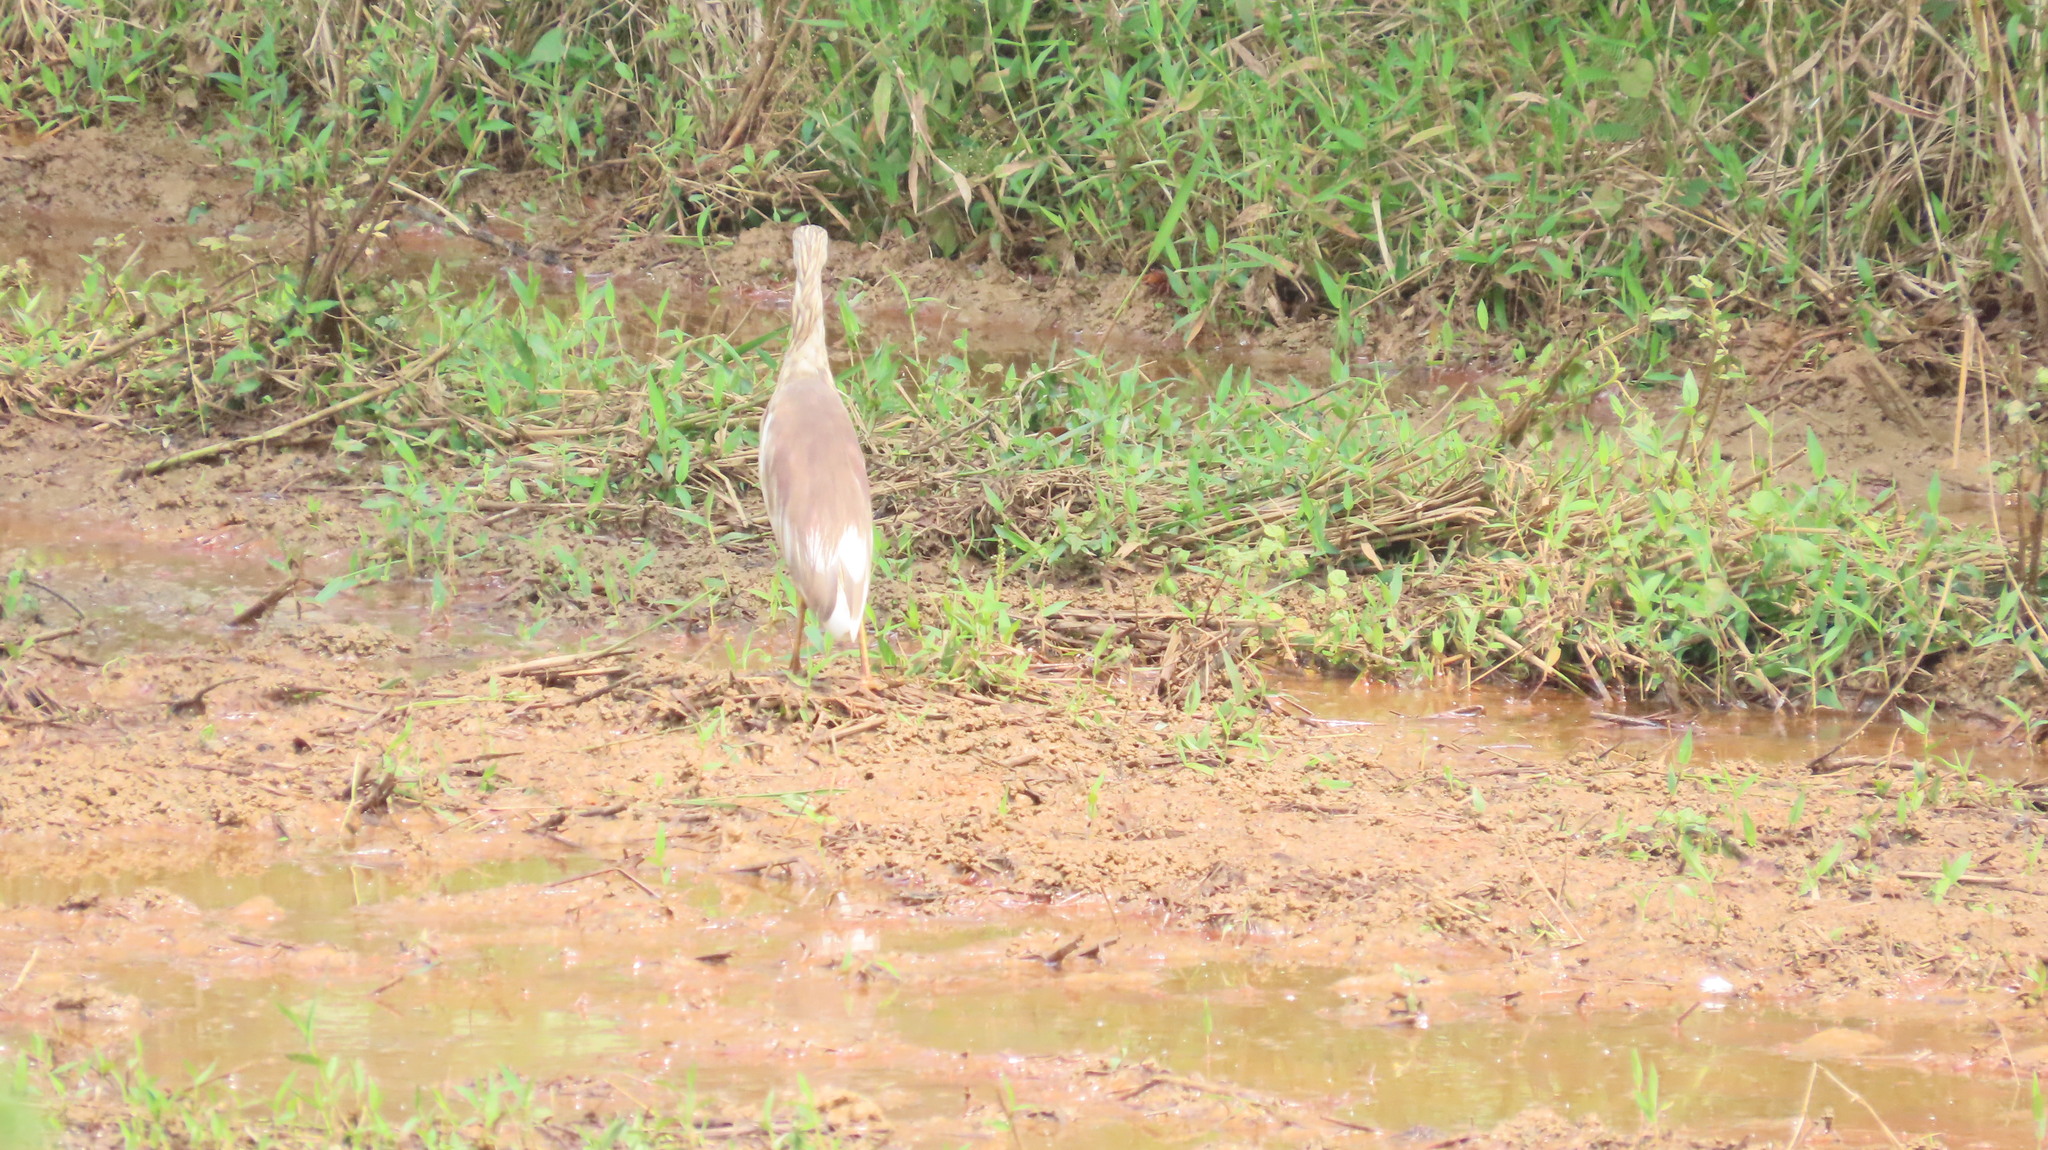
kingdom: Animalia
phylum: Chordata
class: Aves
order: Pelecaniformes
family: Ardeidae
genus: Ardeola
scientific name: Ardeola grayii
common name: Indian pond heron
